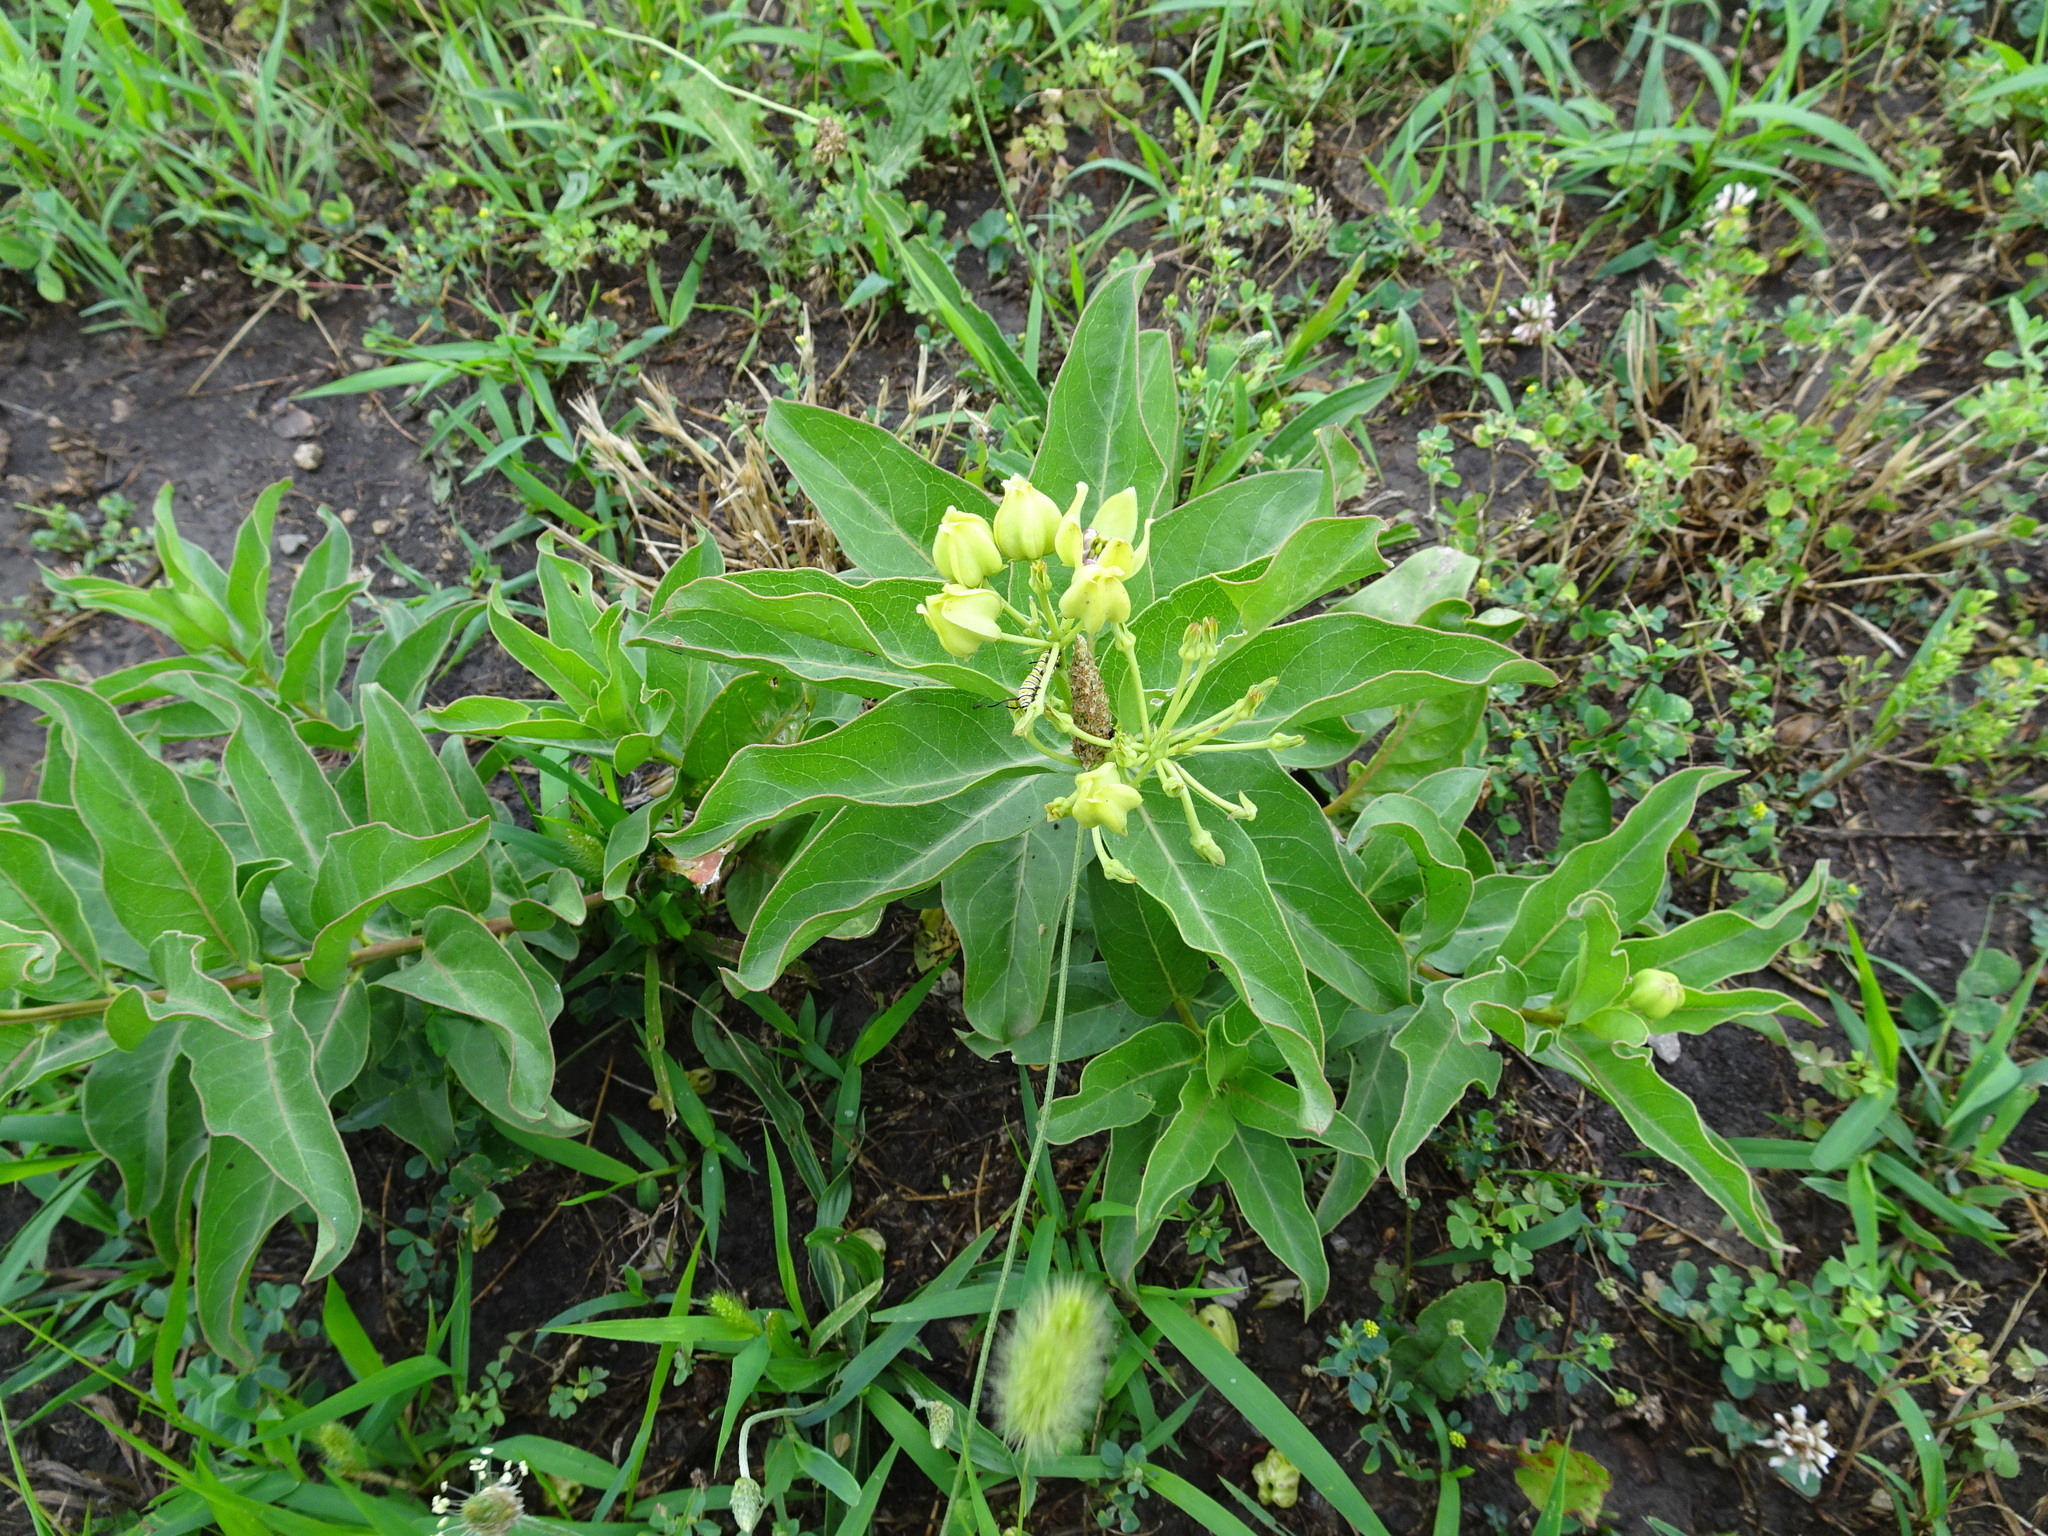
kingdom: Plantae
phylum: Tracheophyta
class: Magnoliopsida
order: Gentianales
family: Apocynaceae
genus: Asclepias
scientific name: Asclepias viridis
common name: Antelope-horns
